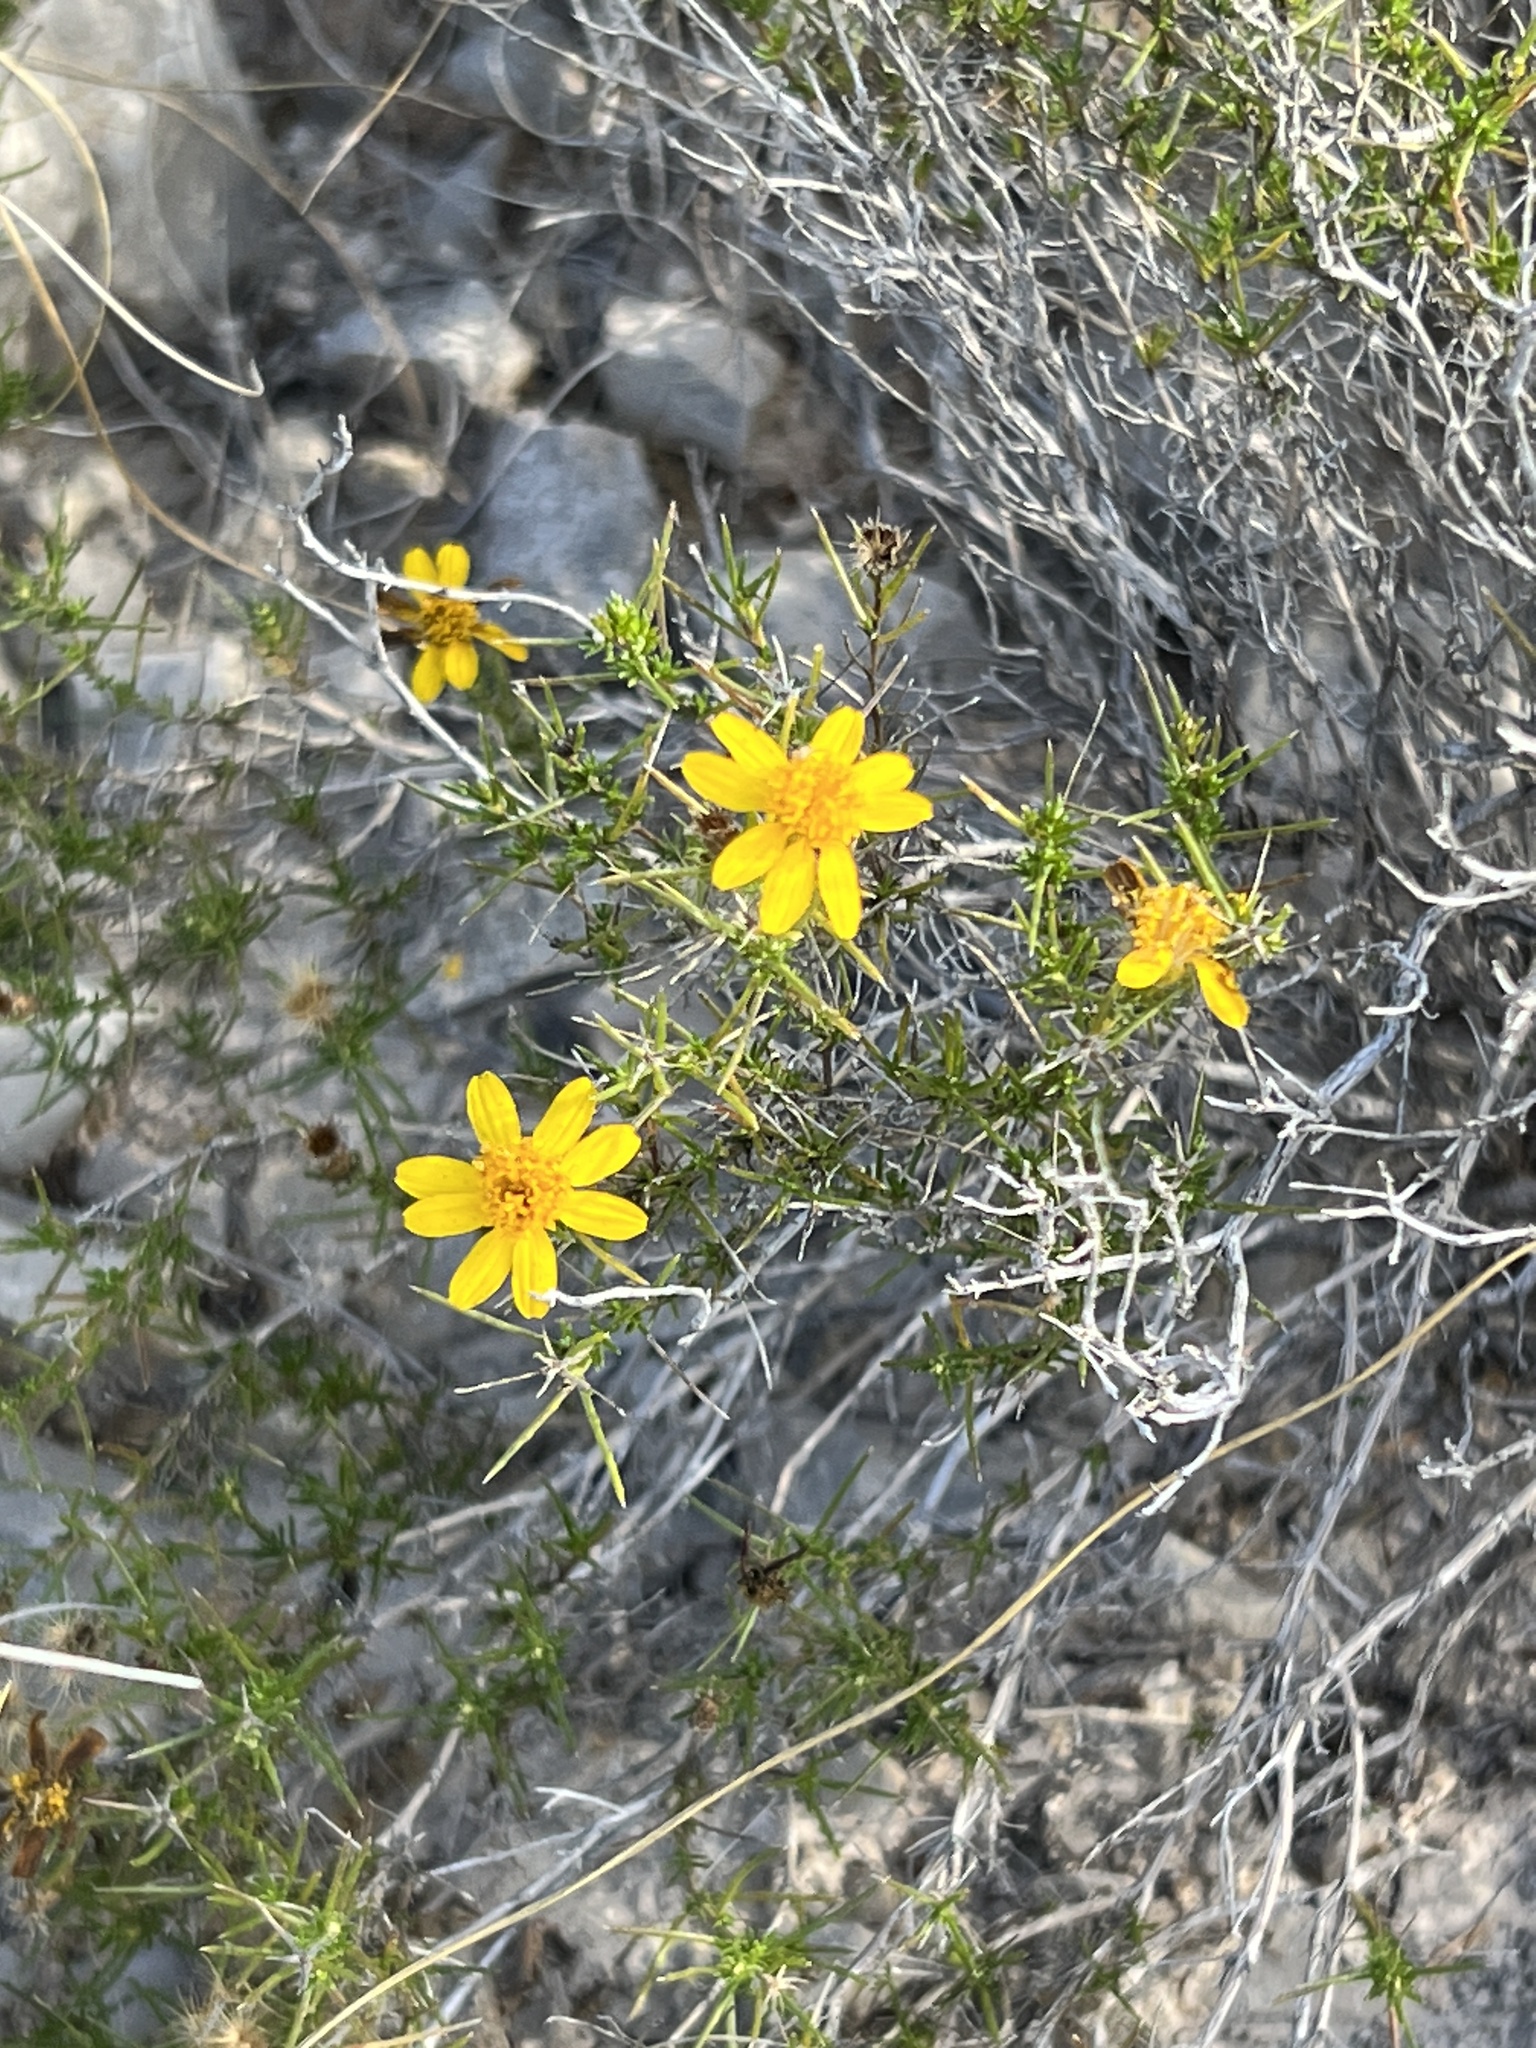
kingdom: Plantae
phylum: Tracheophyta
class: Magnoliopsida
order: Asterales
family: Asteraceae
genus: Thymophylla
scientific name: Thymophylla acerosa
